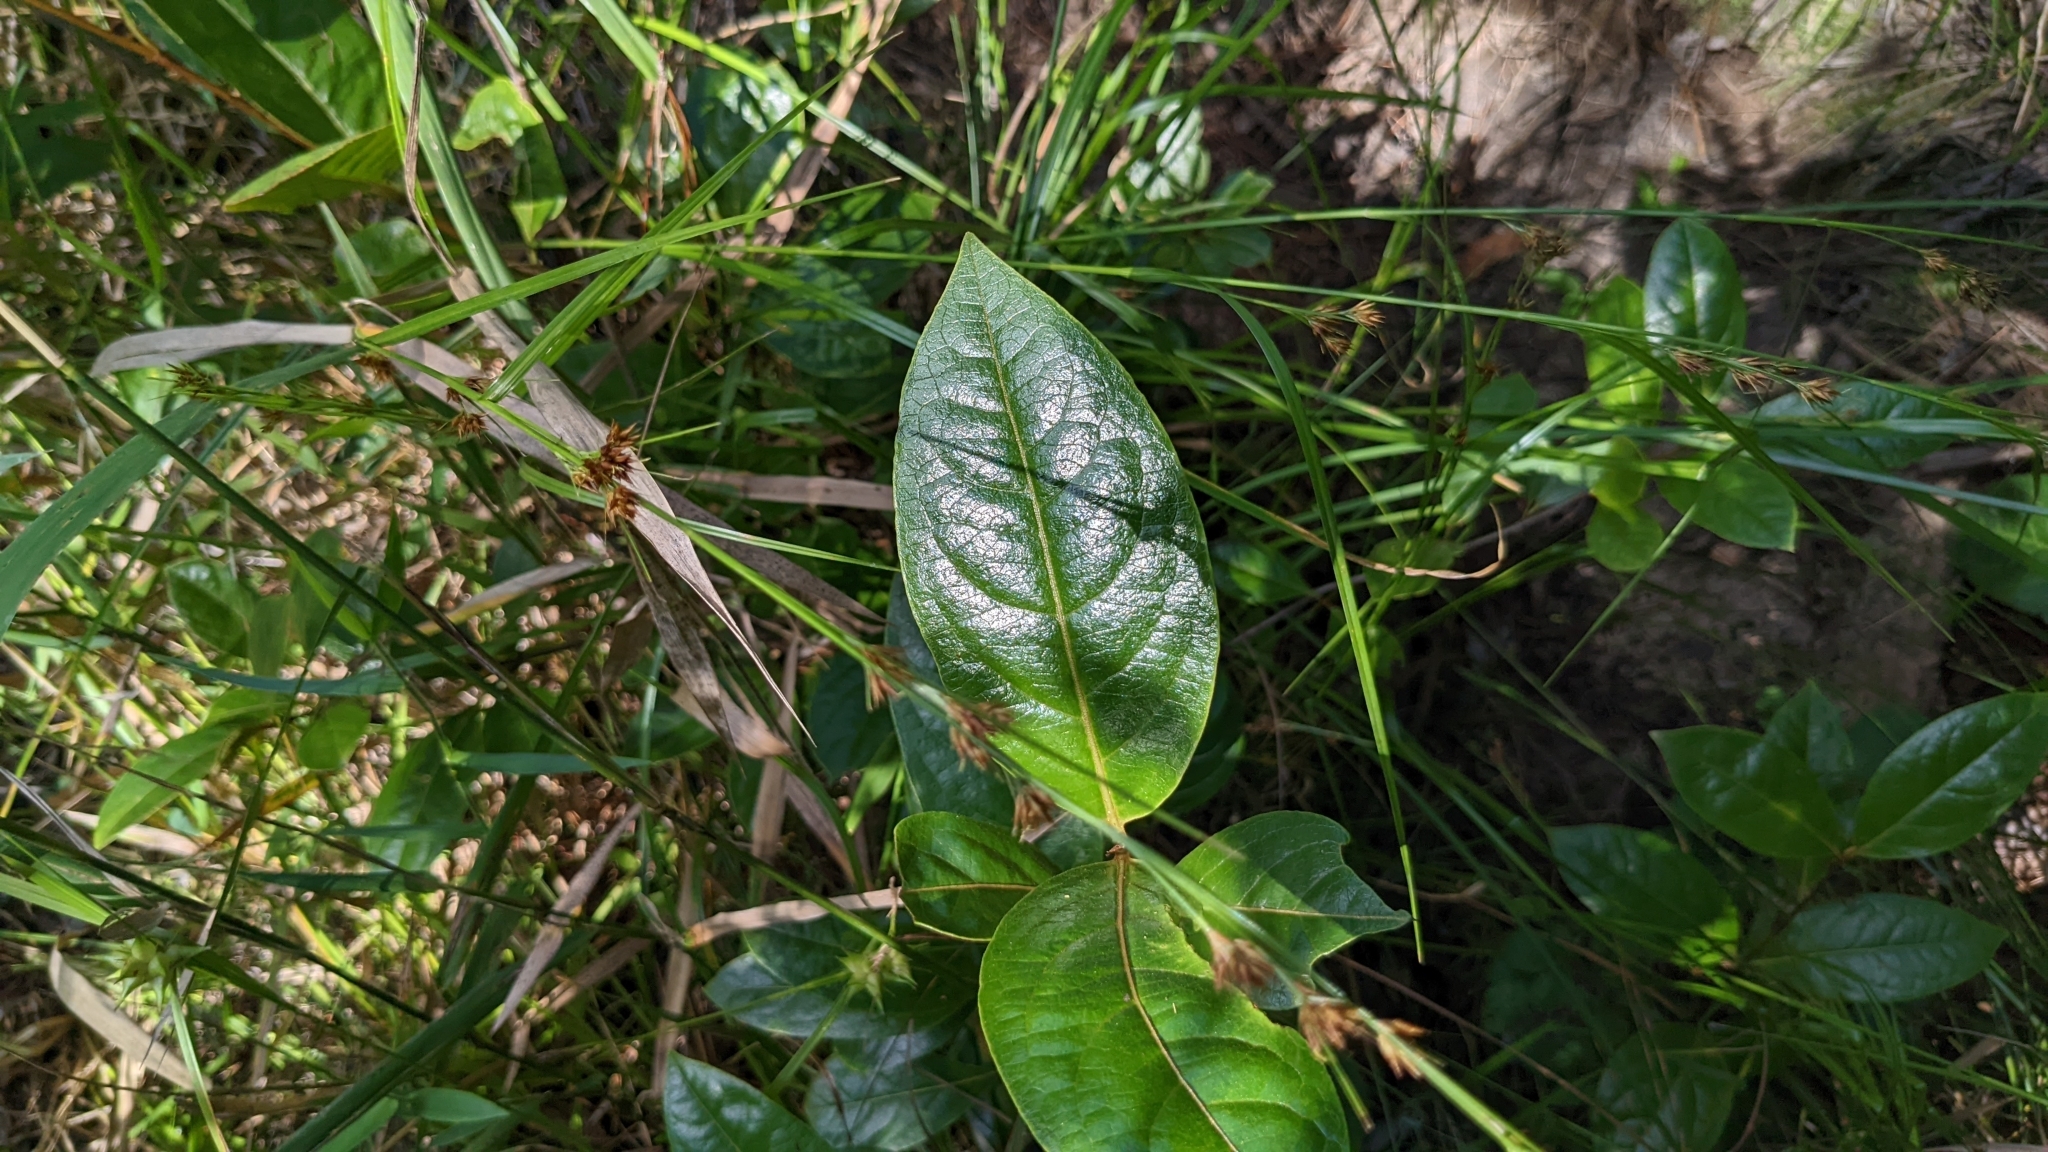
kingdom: Plantae
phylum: Tracheophyta
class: Magnoliopsida
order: Dipsacales
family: Viburnaceae
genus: Viburnum
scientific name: Viburnum nudum
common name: Possum haw
